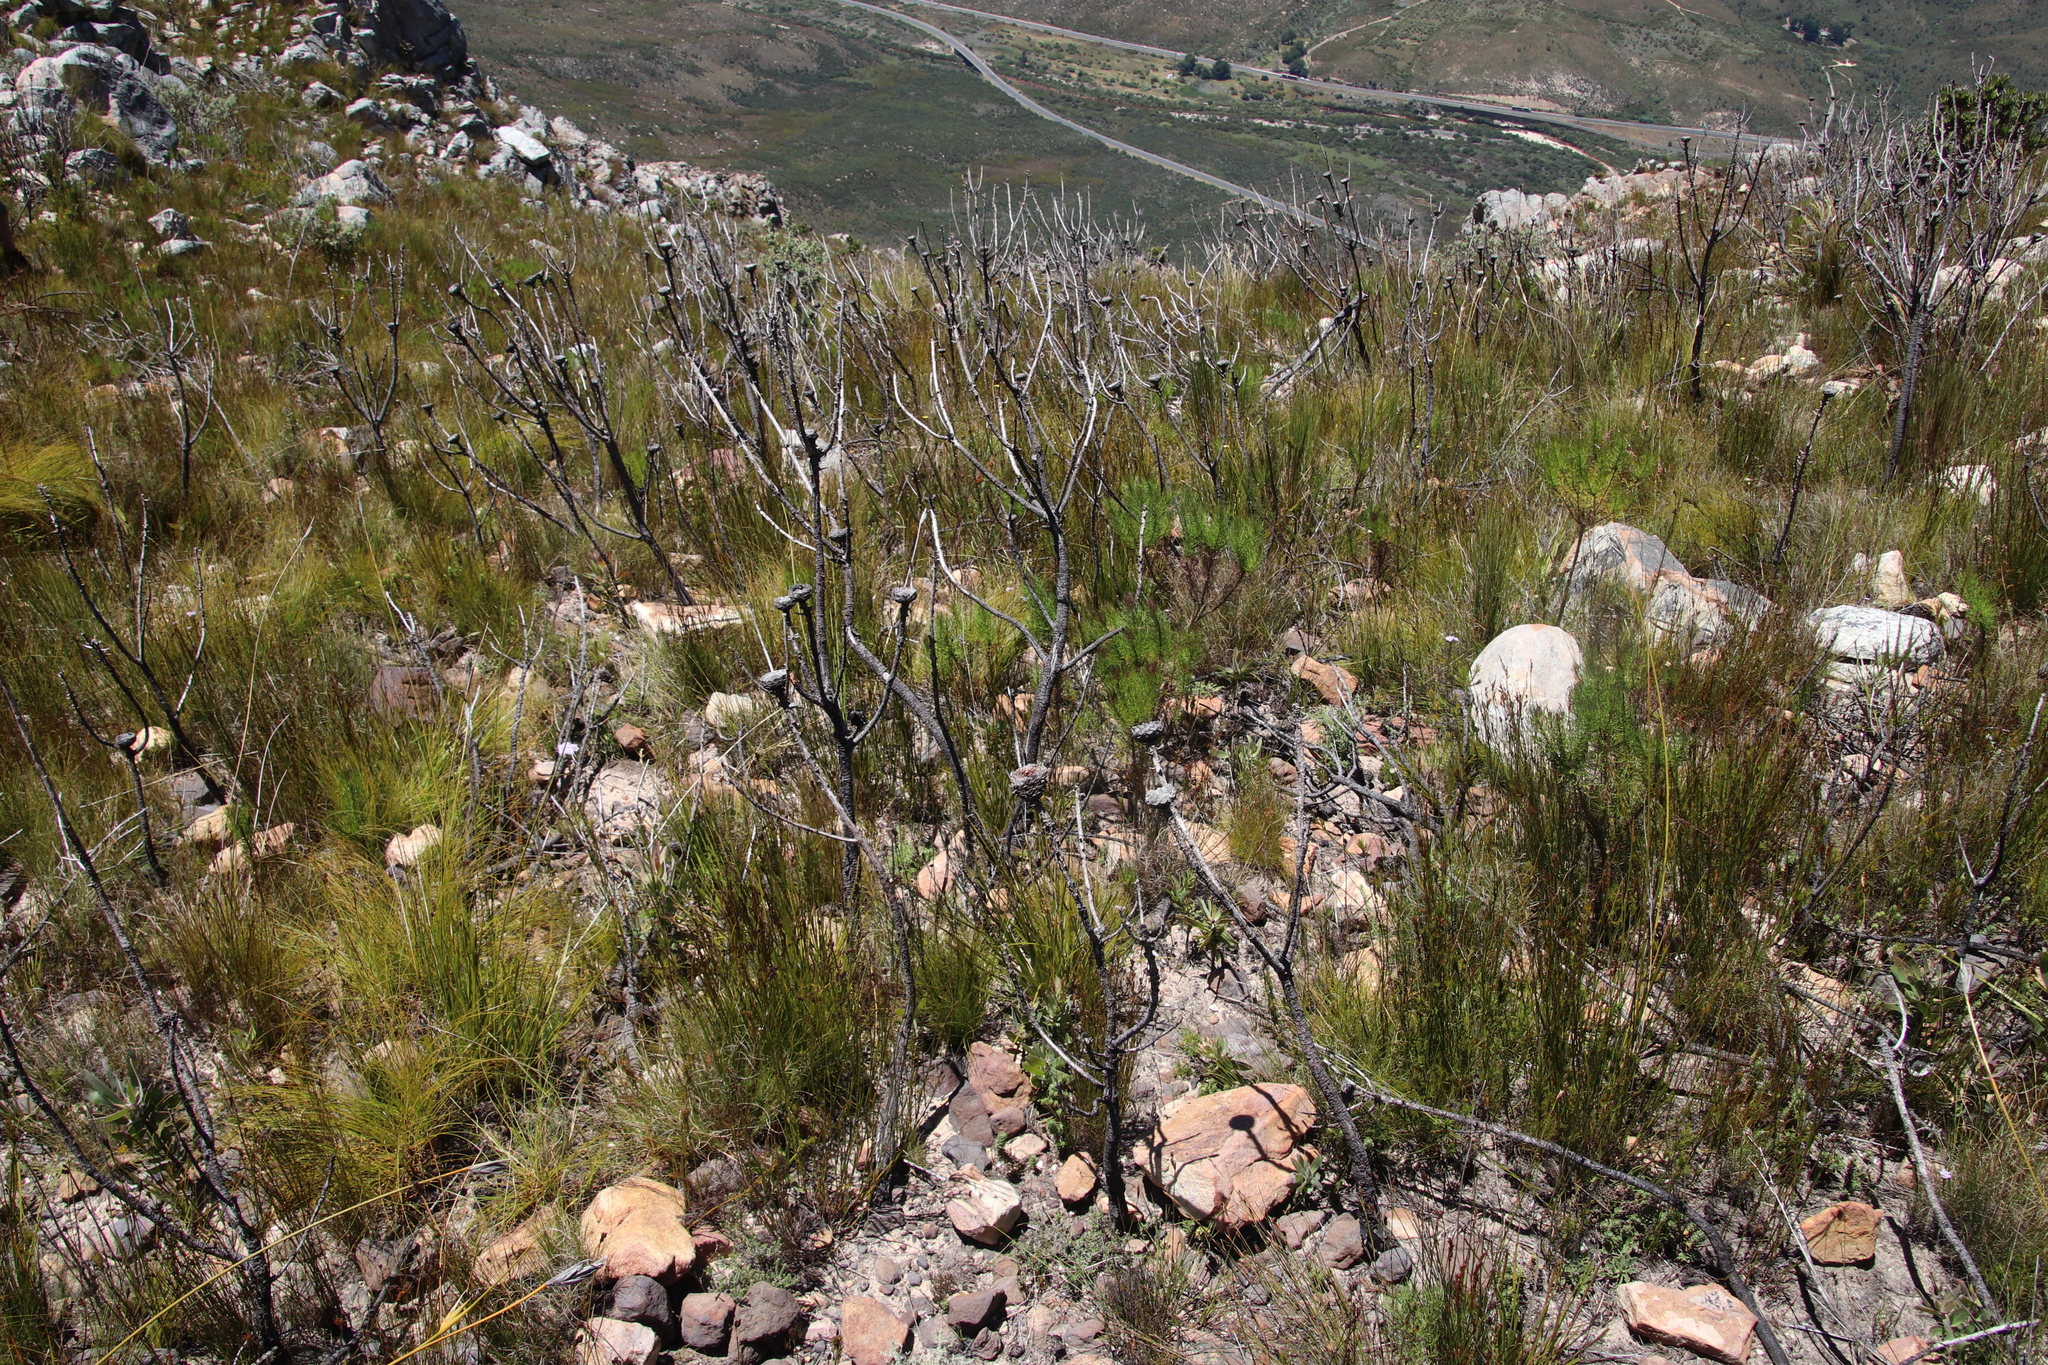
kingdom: Plantae
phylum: Tracheophyta
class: Magnoliopsida
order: Proteales
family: Proteaceae
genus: Protea
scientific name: Protea laurifolia
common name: Grey-leaf sugarbsh
